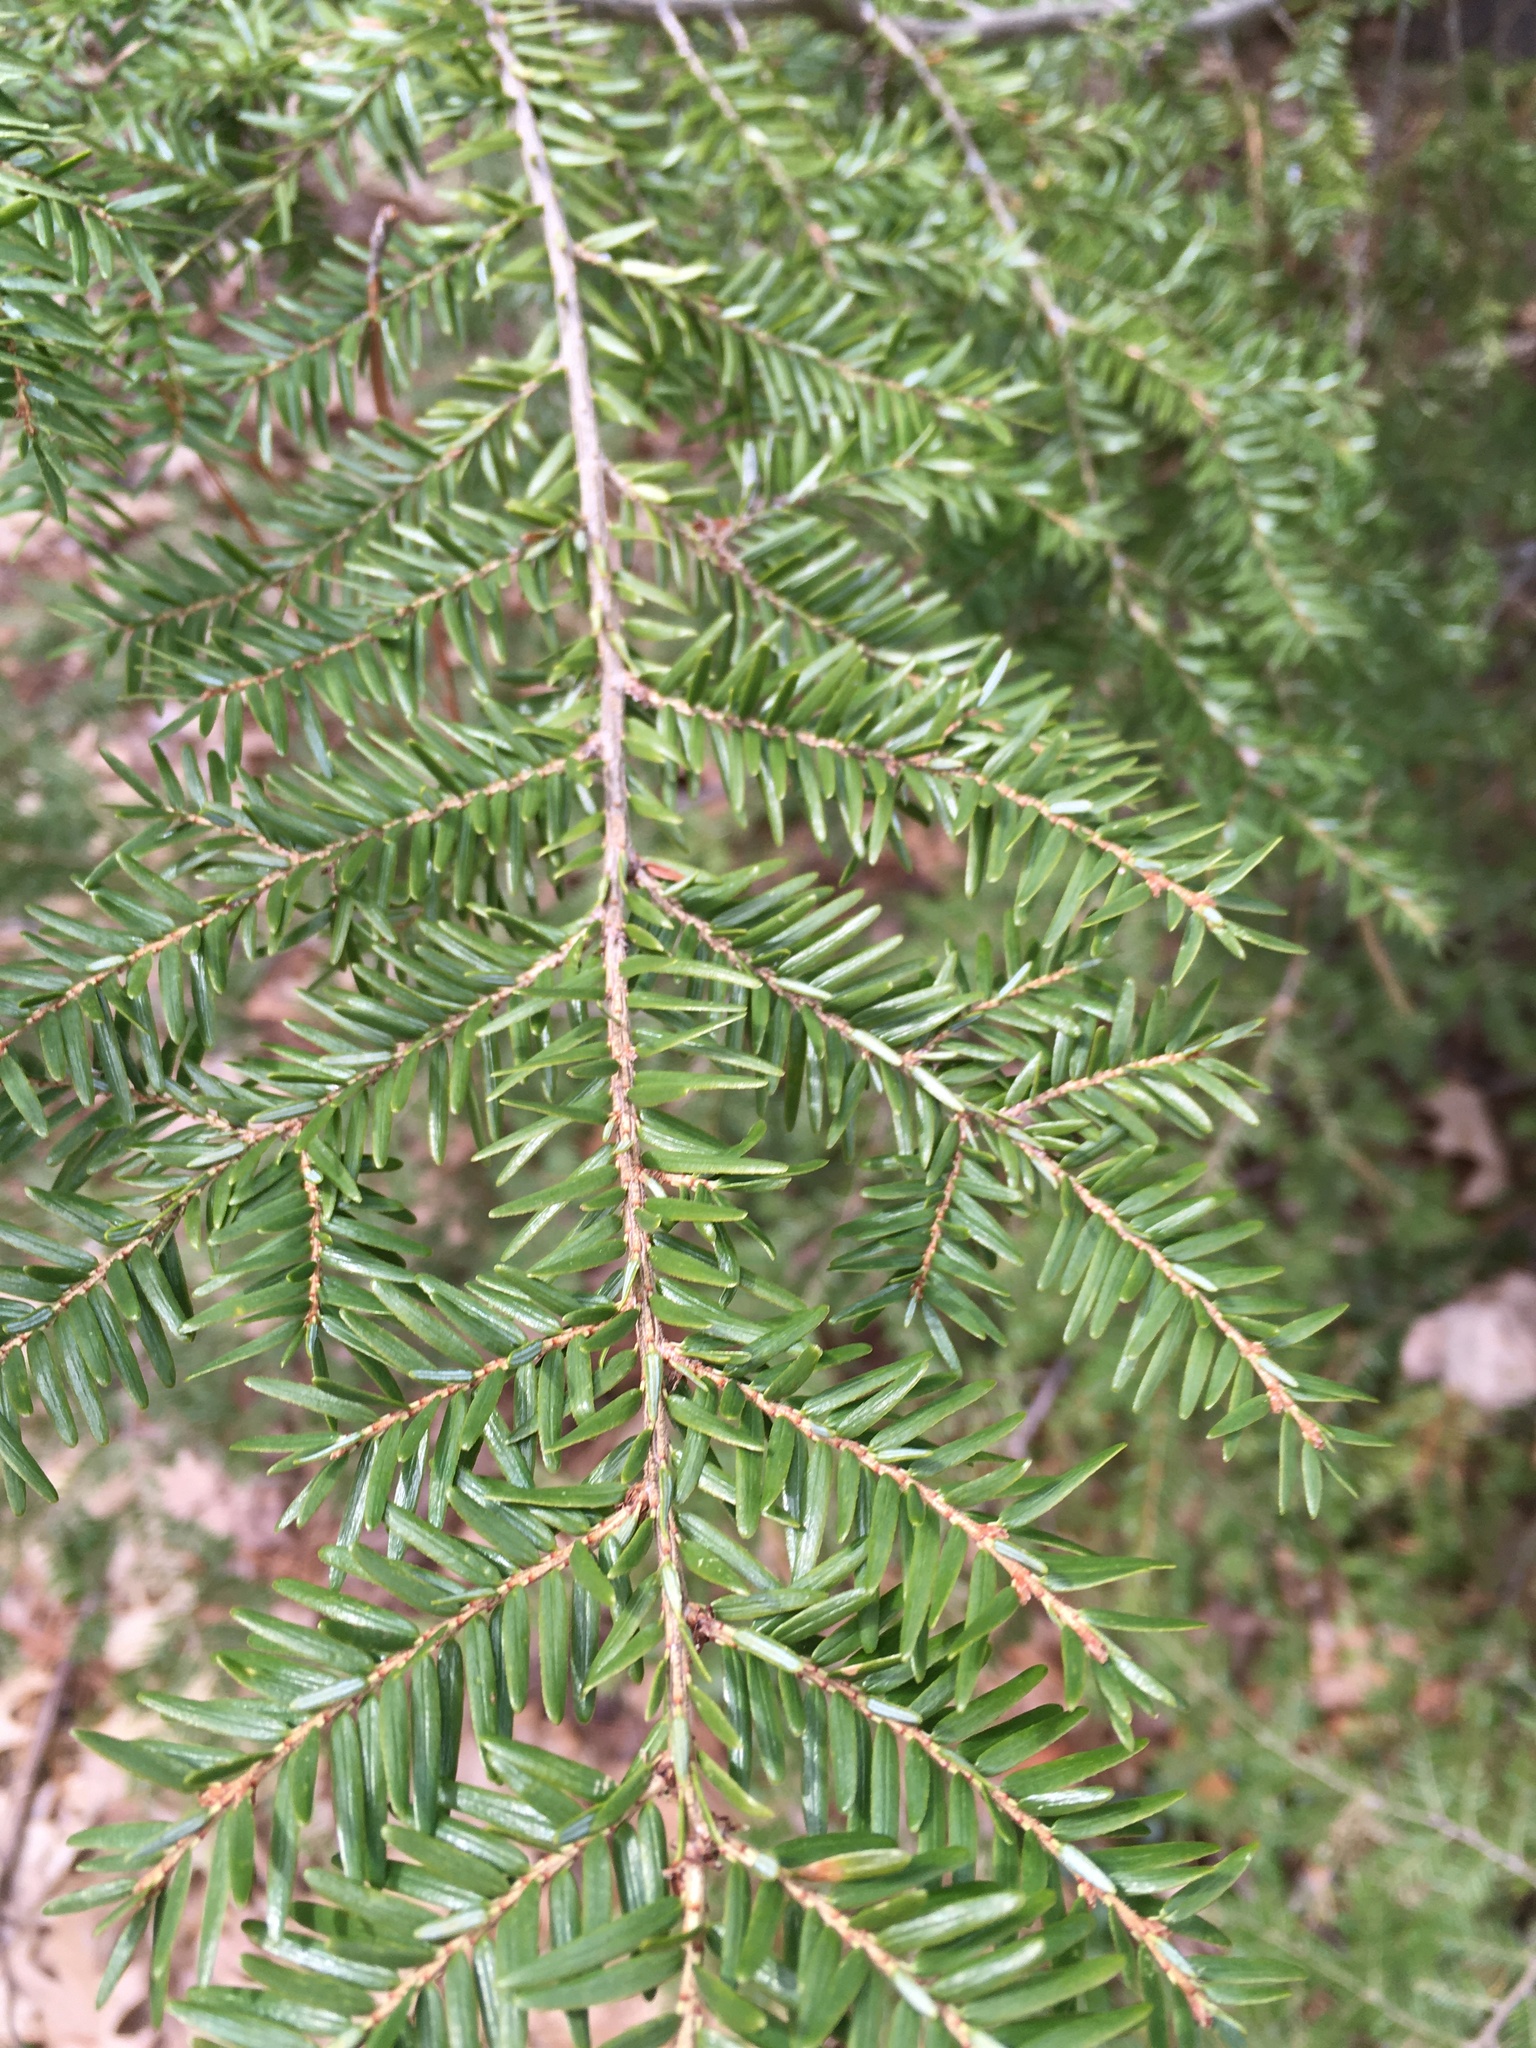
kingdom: Plantae
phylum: Tracheophyta
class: Pinopsida
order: Pinales
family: Pinaceae
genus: Tsuga
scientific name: Tsuga canadensis
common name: Eastern hemlock
